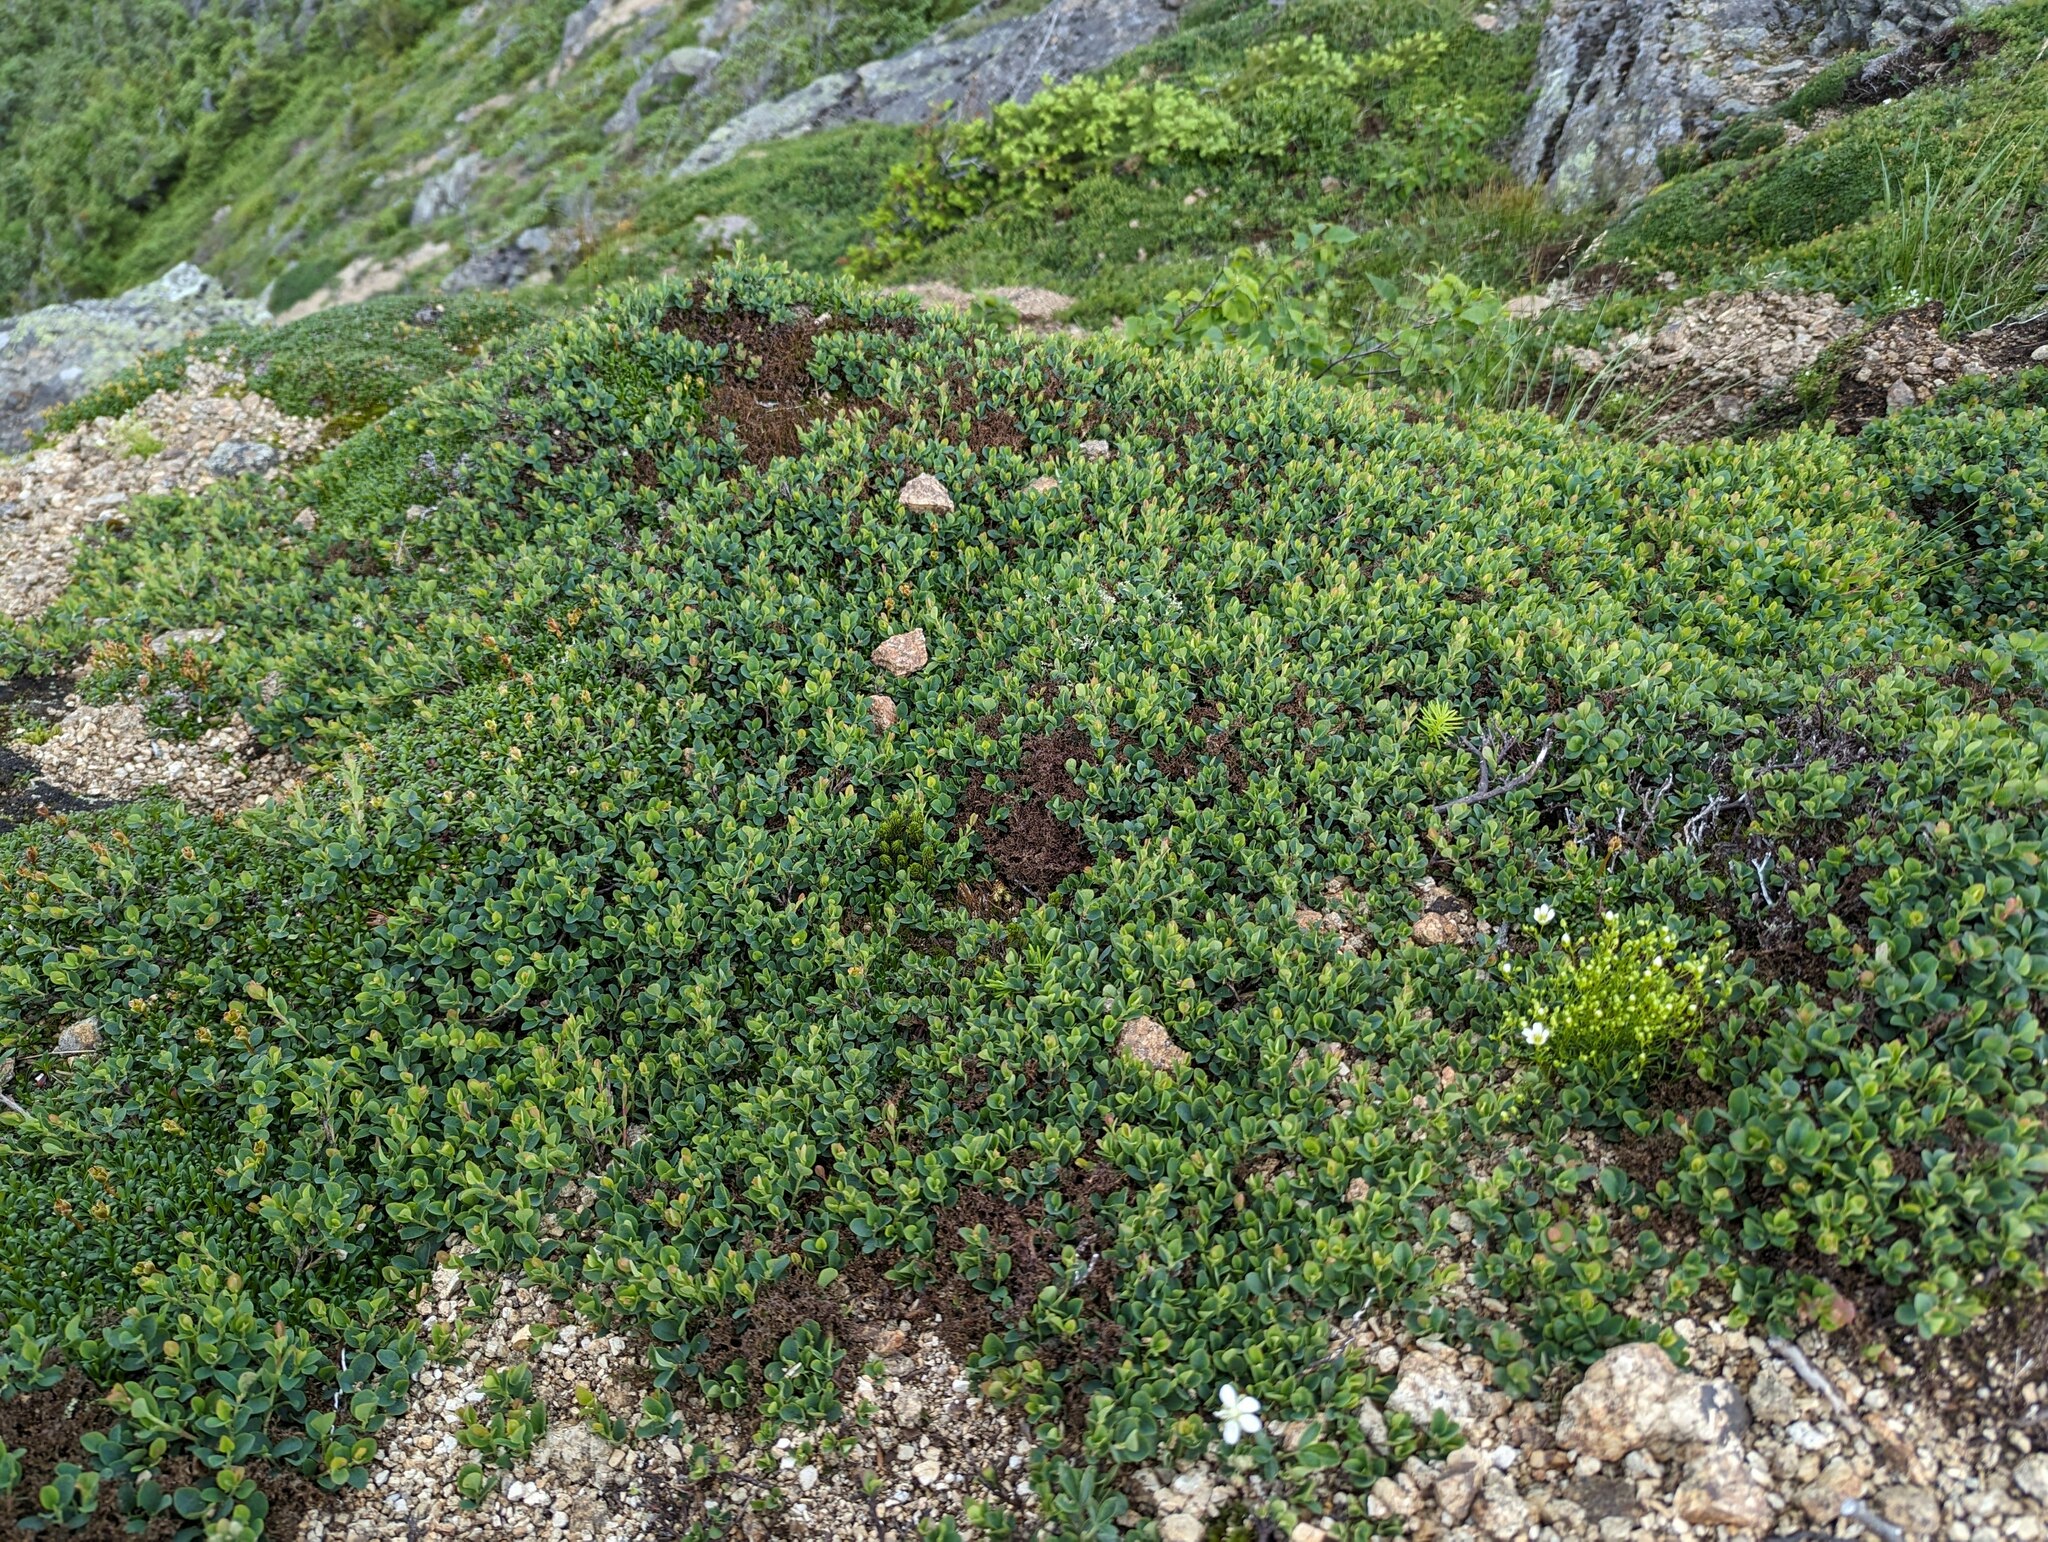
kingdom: Plantae
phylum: Tracheophyta
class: Magnoliopsida
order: Ericales
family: Ericaceae
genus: Vaccinium
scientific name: Vaccinium uliginosum
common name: Bog bilberry
